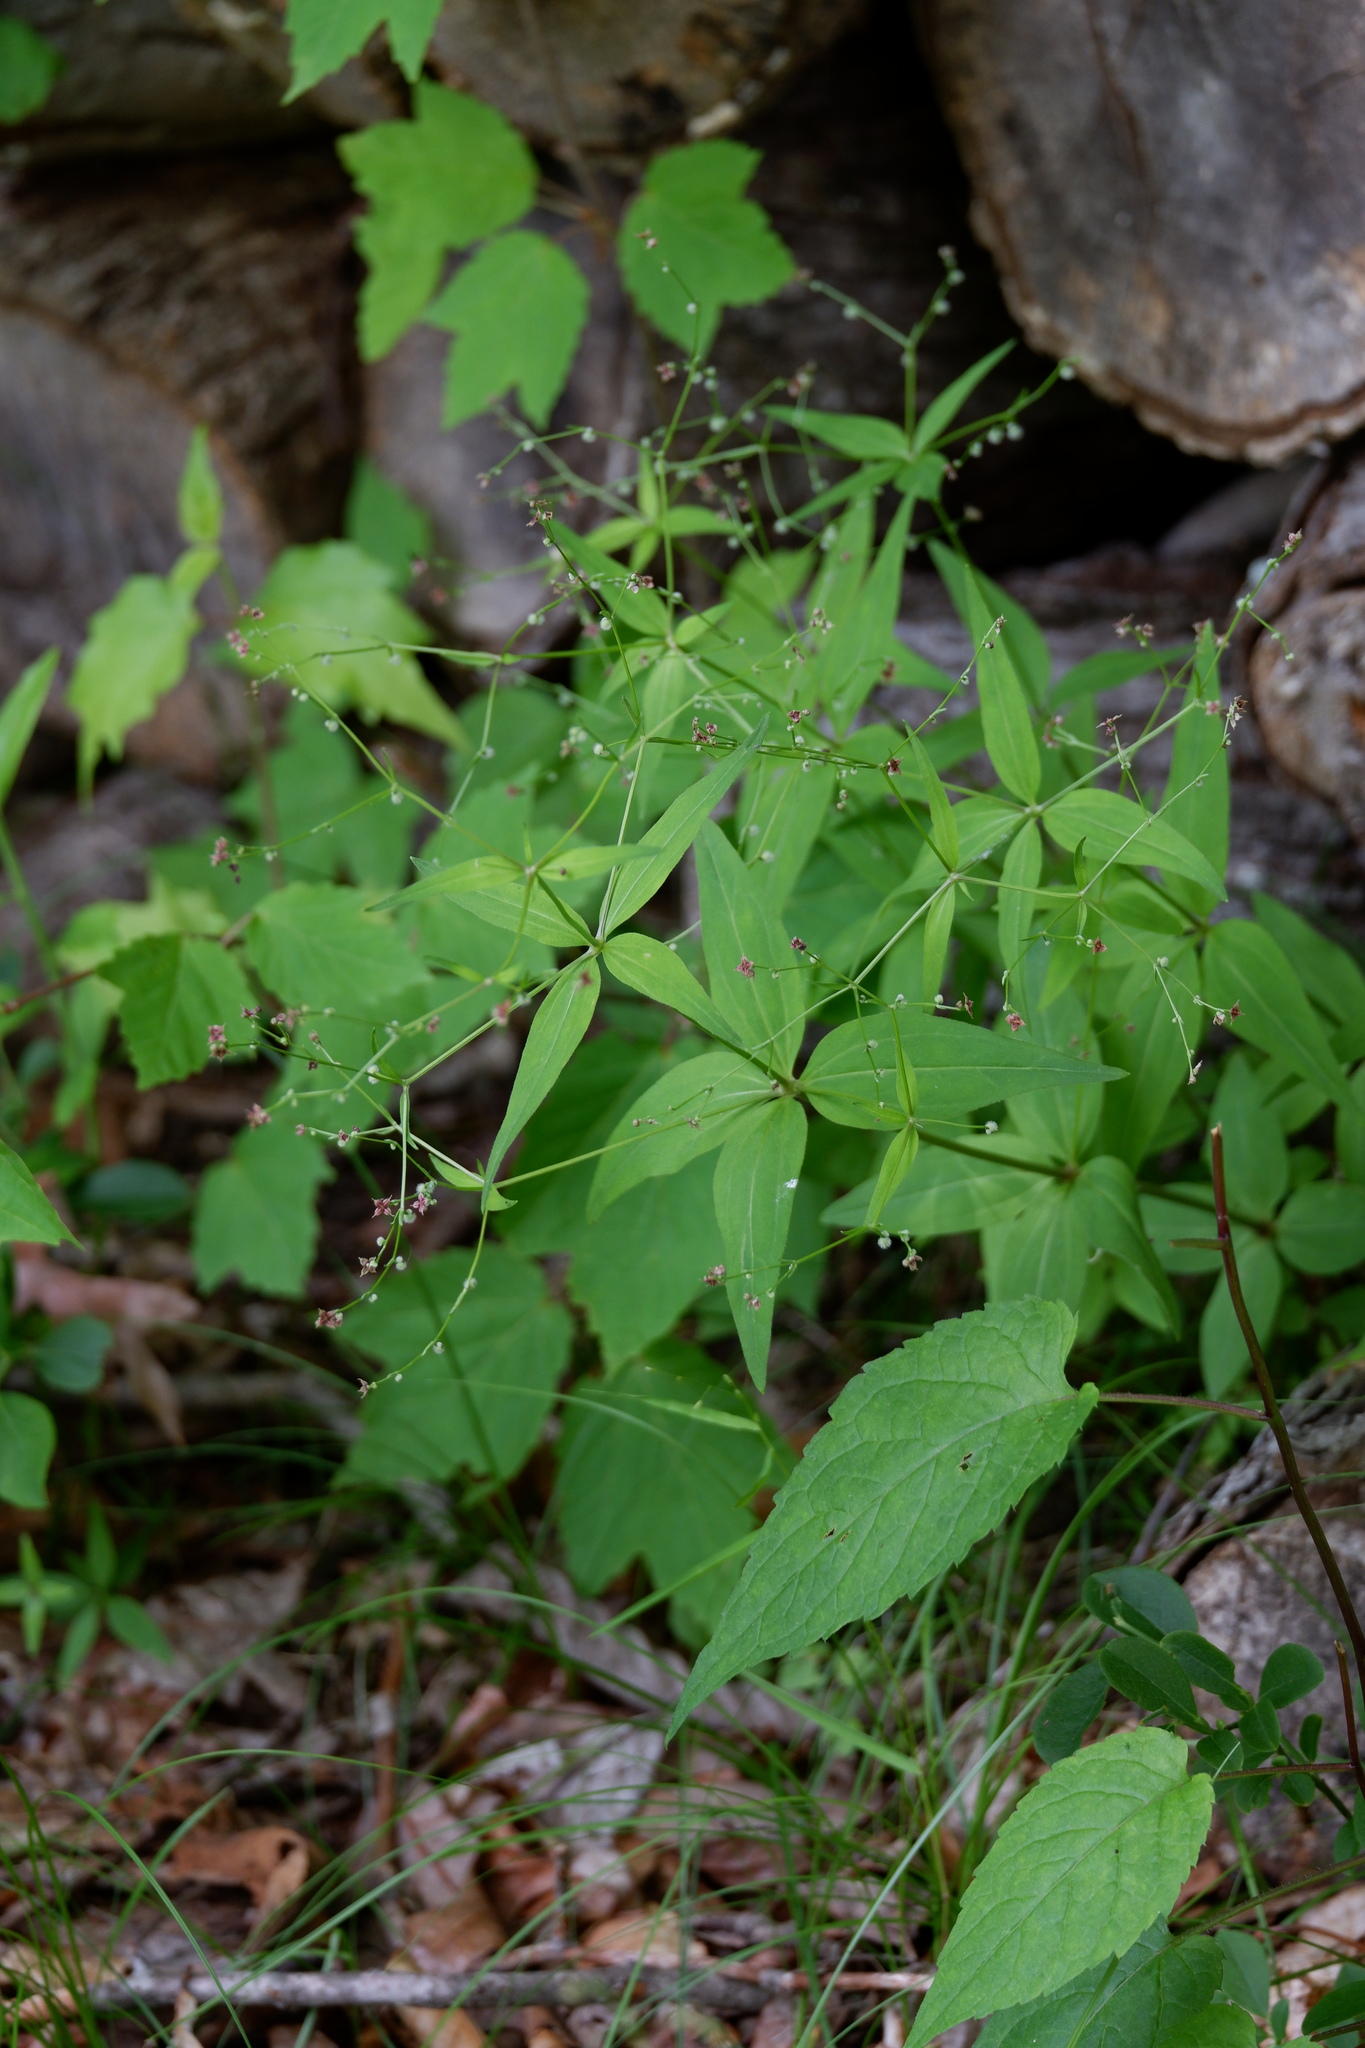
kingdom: Plantae
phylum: Tracheophyta
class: Magnoliopsida
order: Gentianales
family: Rubiaceae
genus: Galium
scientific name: Galium lanceolatum
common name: Lance-leaved wild licorice
